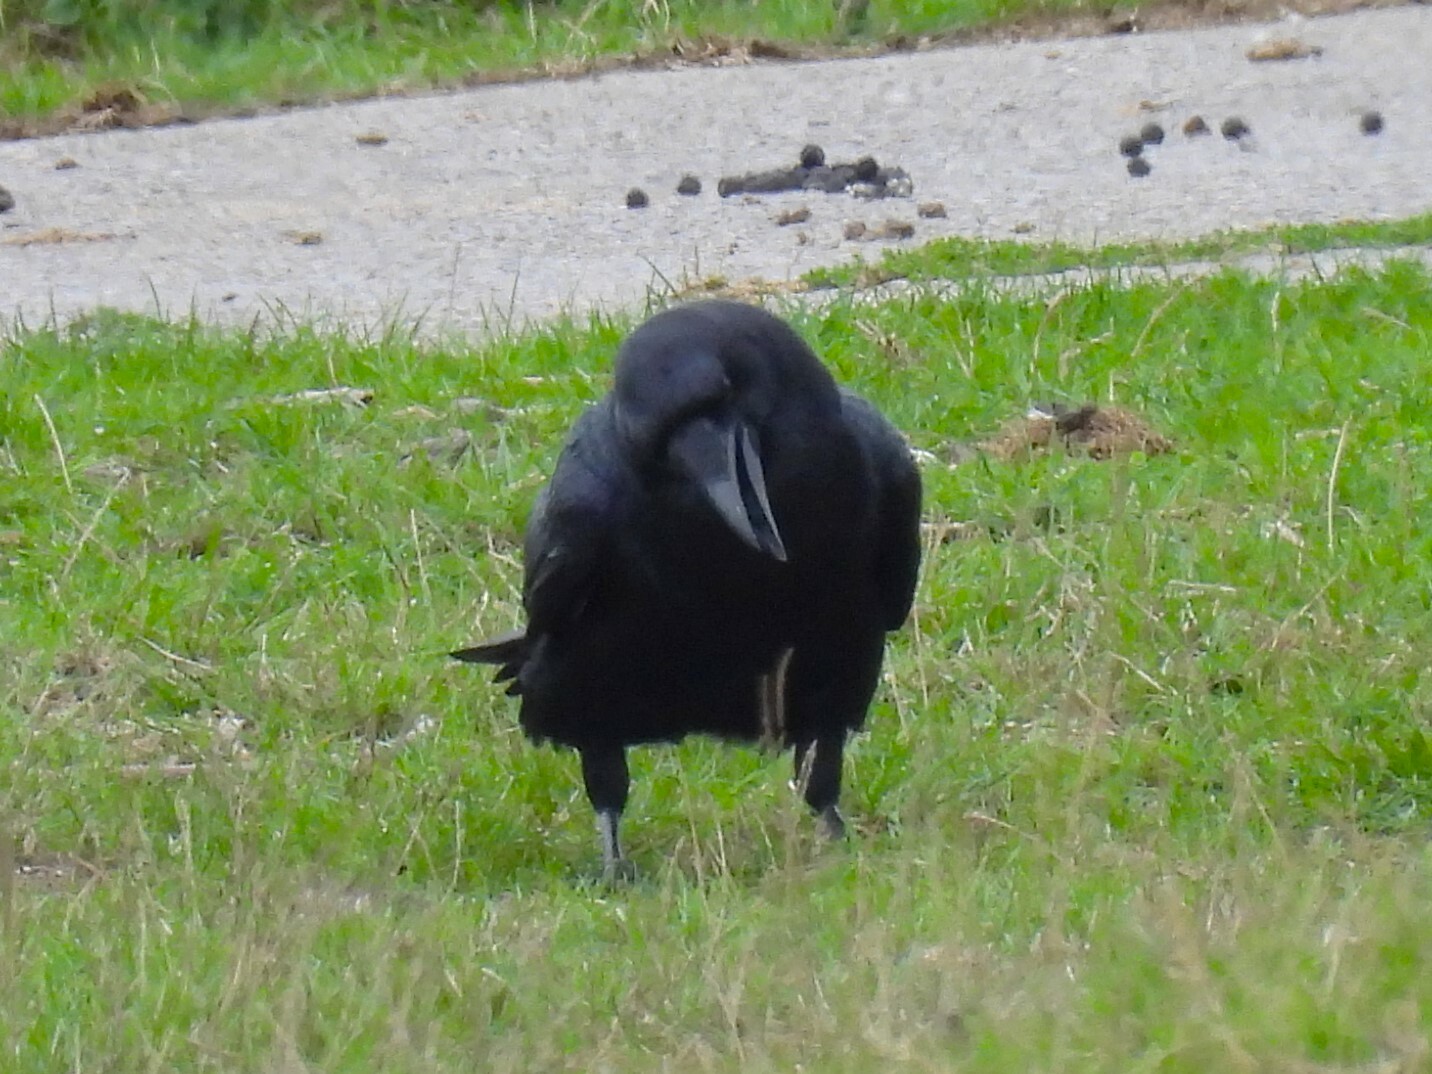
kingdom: Animalia
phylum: Chordata
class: Aves
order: Passeriformes
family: Corvidae
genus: Corvus
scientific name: Corvus corax
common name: Common raven
